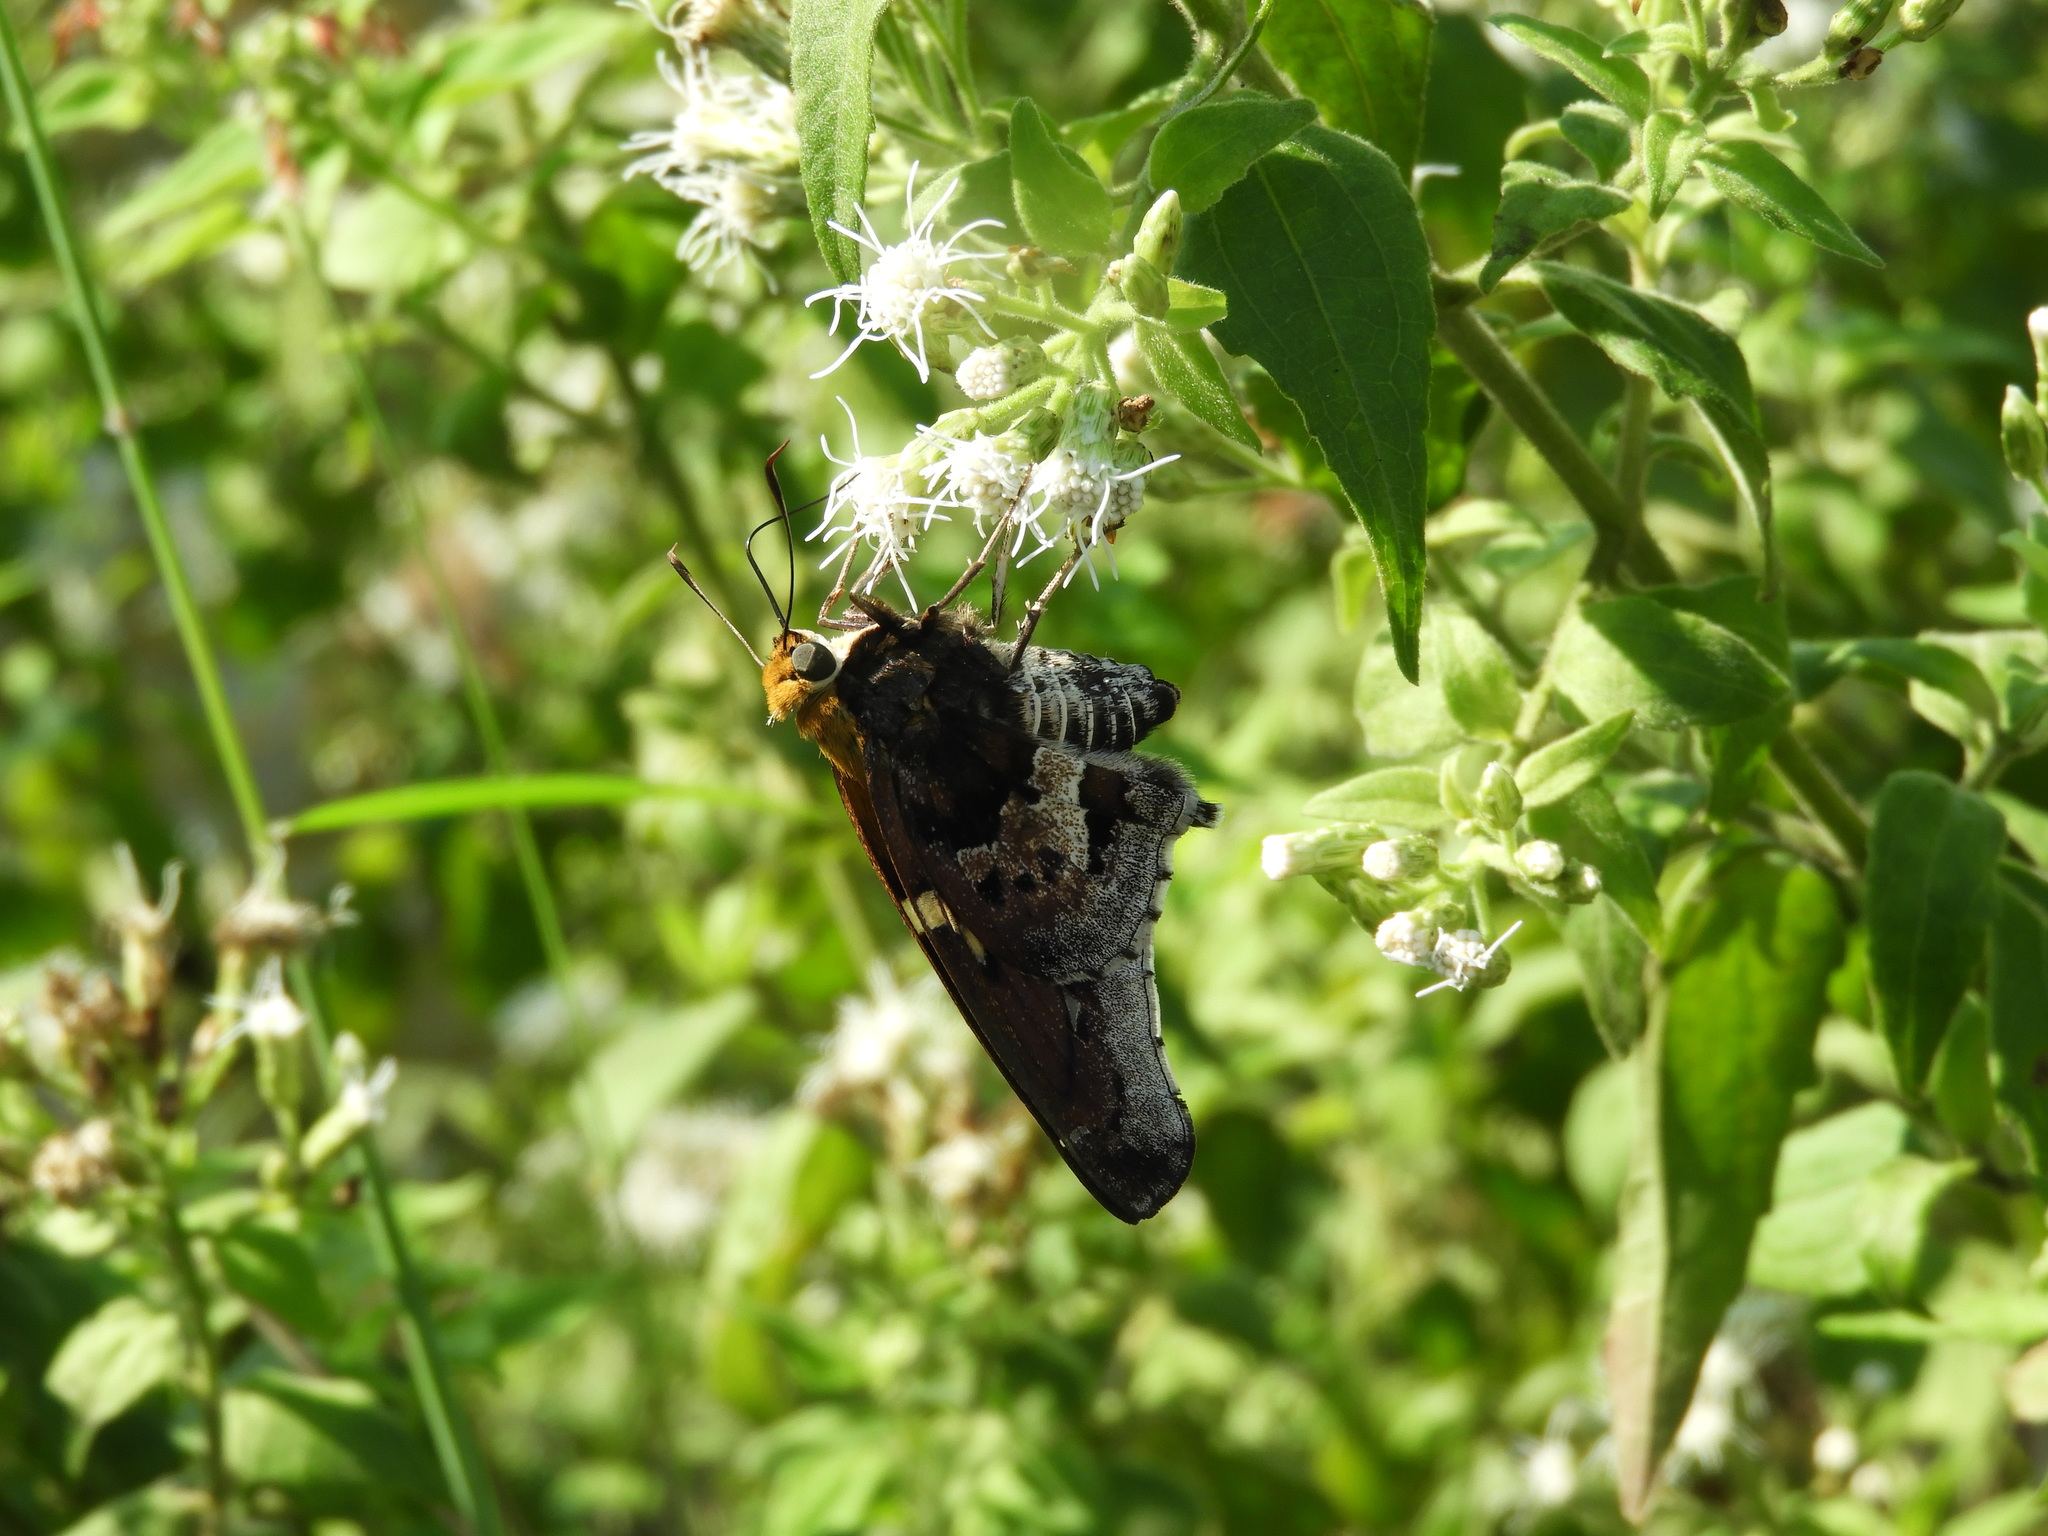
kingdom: Animalia
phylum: Arthropoda
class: Insecta
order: Lepidoptera
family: Hesperiidae
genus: Proteides
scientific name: Proteides mercurius
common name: Mercurial skipper
